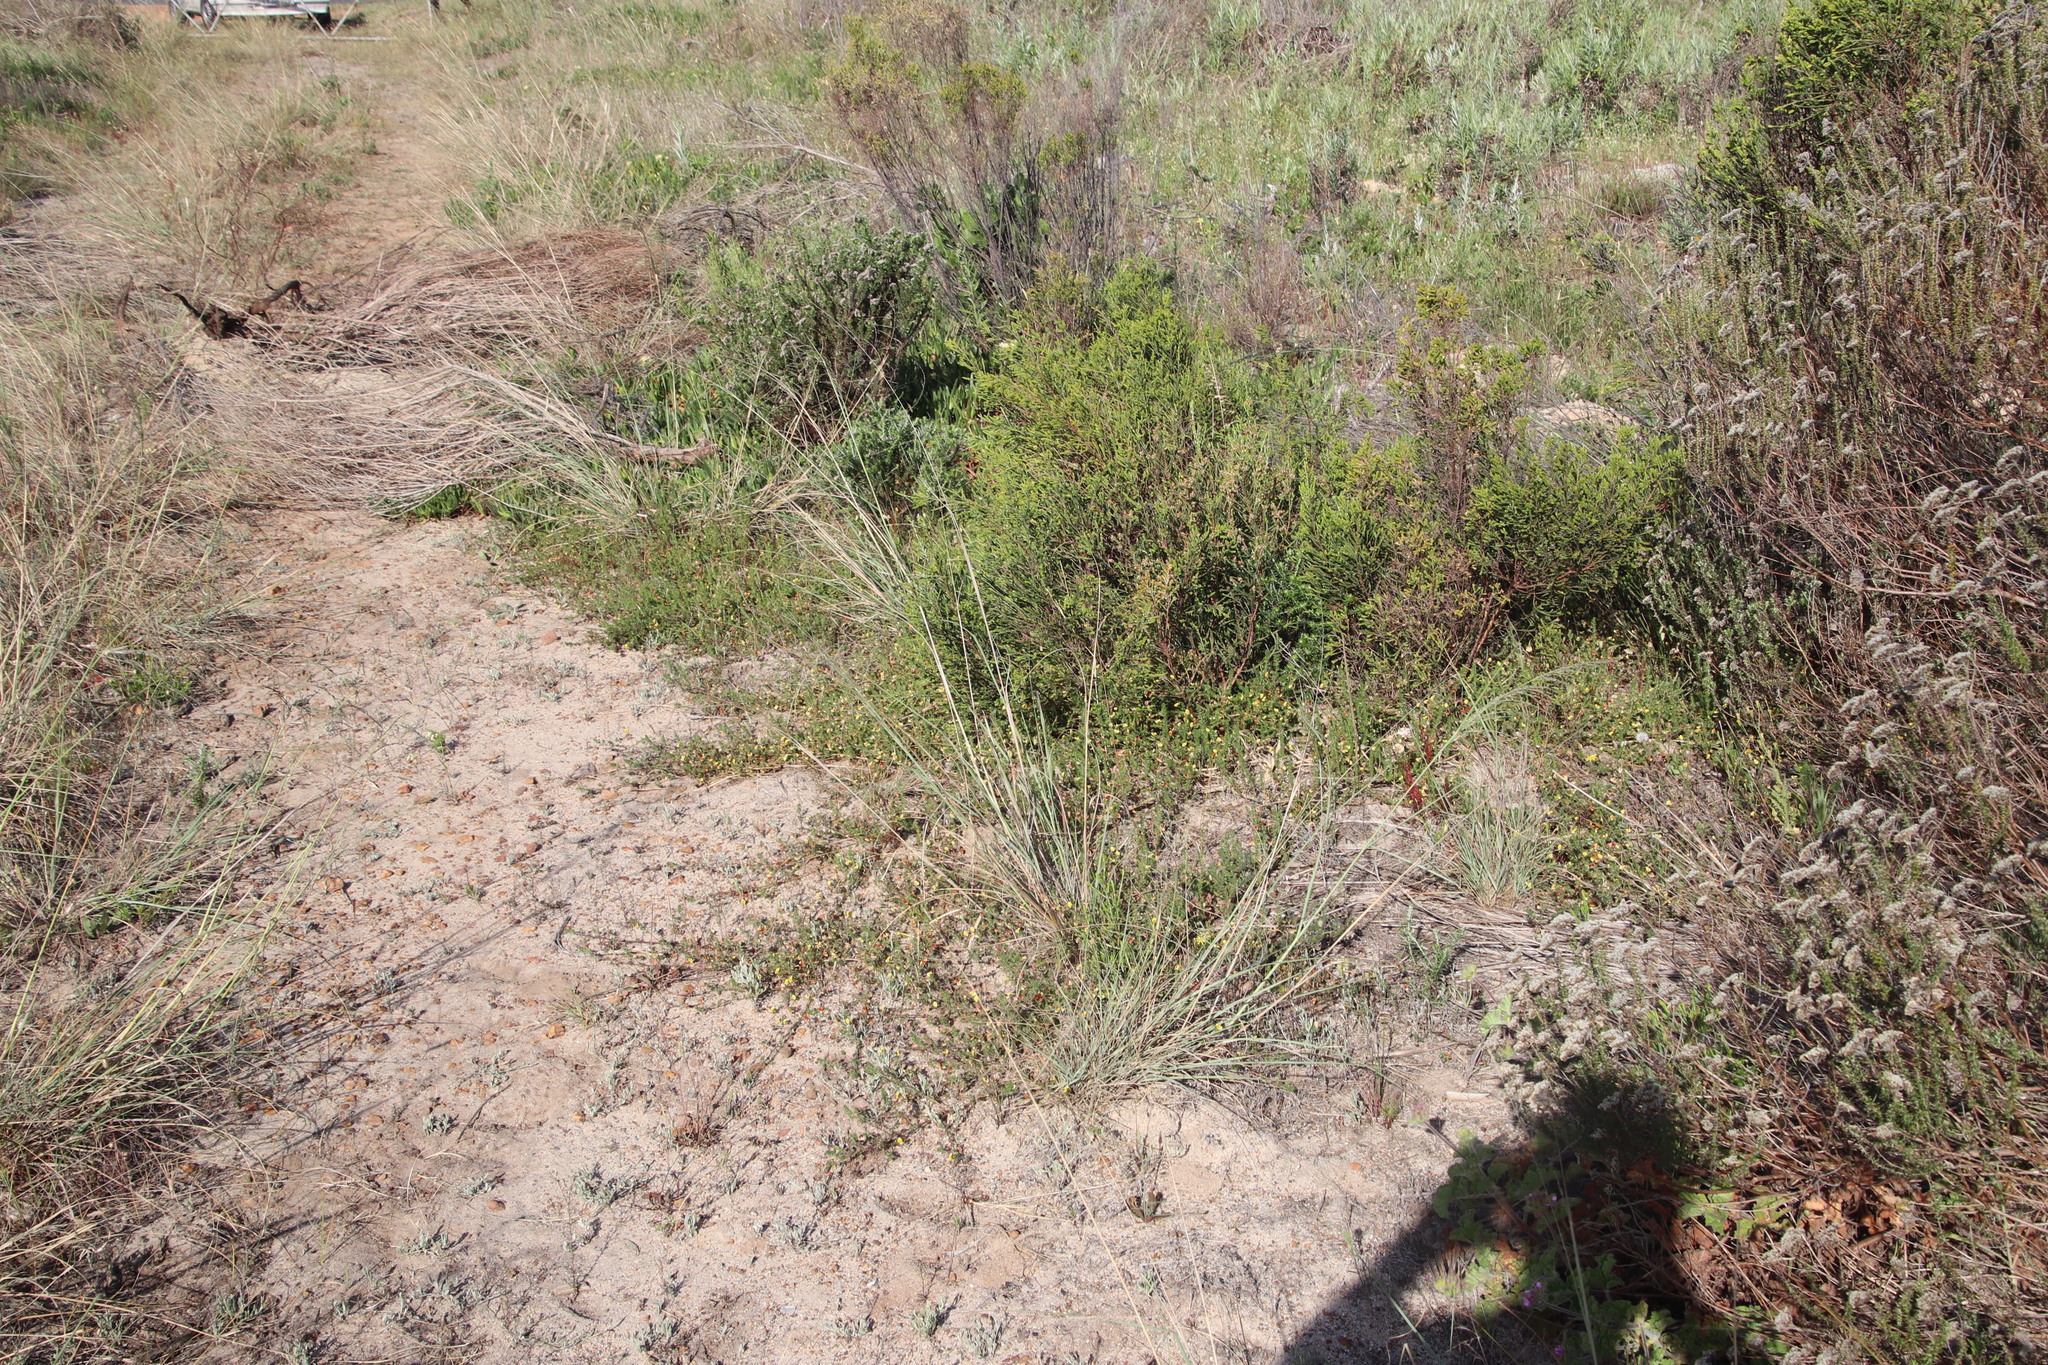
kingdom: Plantae
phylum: Tracheophyta
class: Magnoliopsida
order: Fabales
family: Fabaceae
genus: Aspalathus
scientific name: Aspalathus retroflexa
